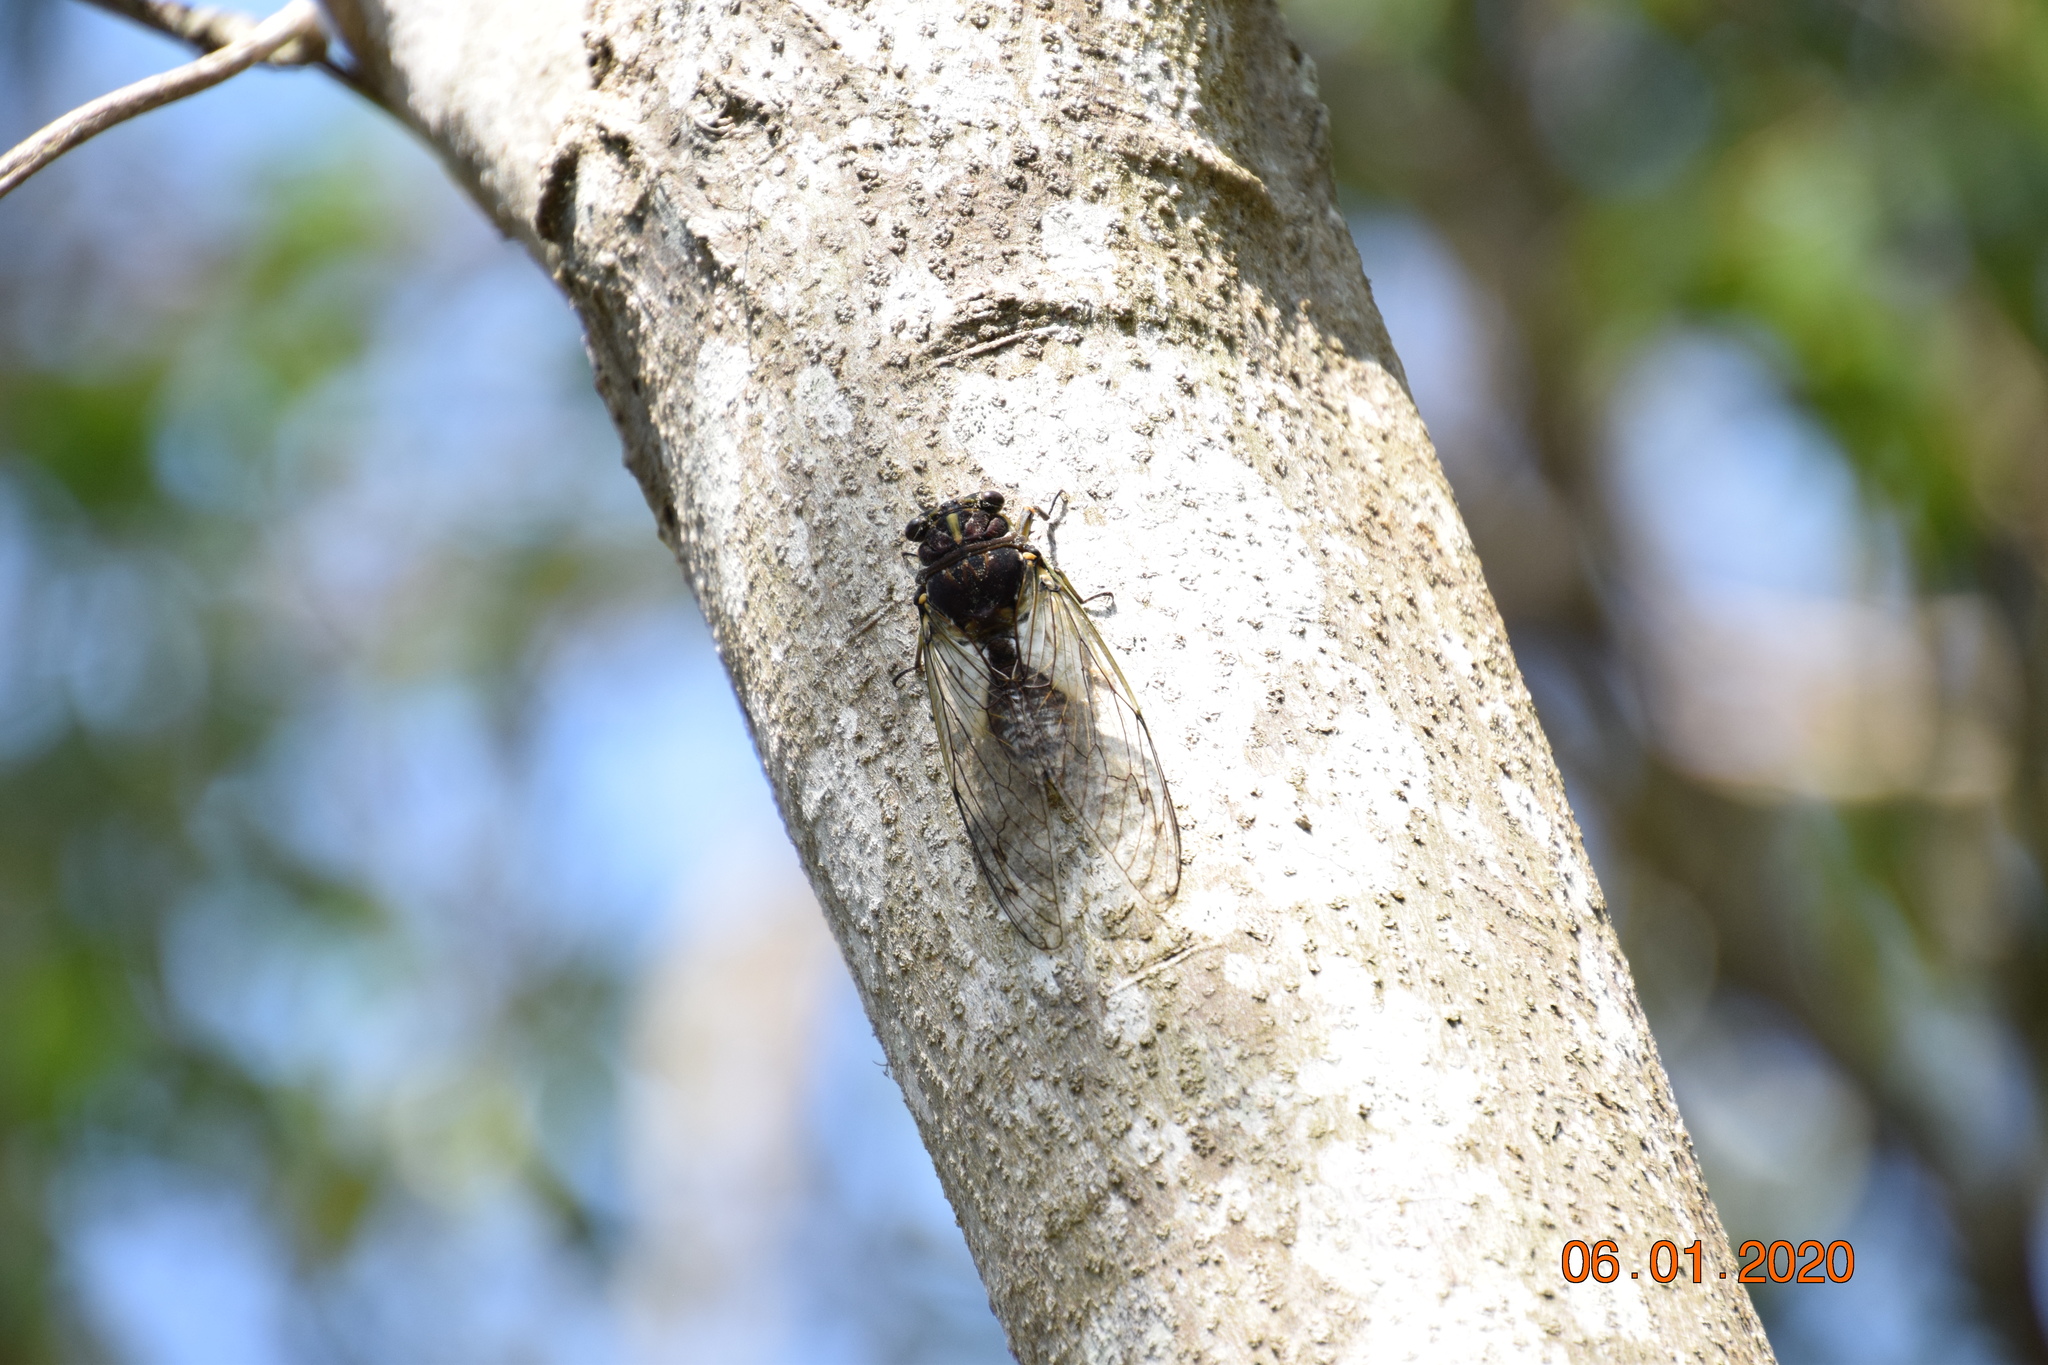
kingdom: Animalia
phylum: Arthropoda
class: Insecta
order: Hemiptera
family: Cicadidae
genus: Arunta
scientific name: Arunta perulata
